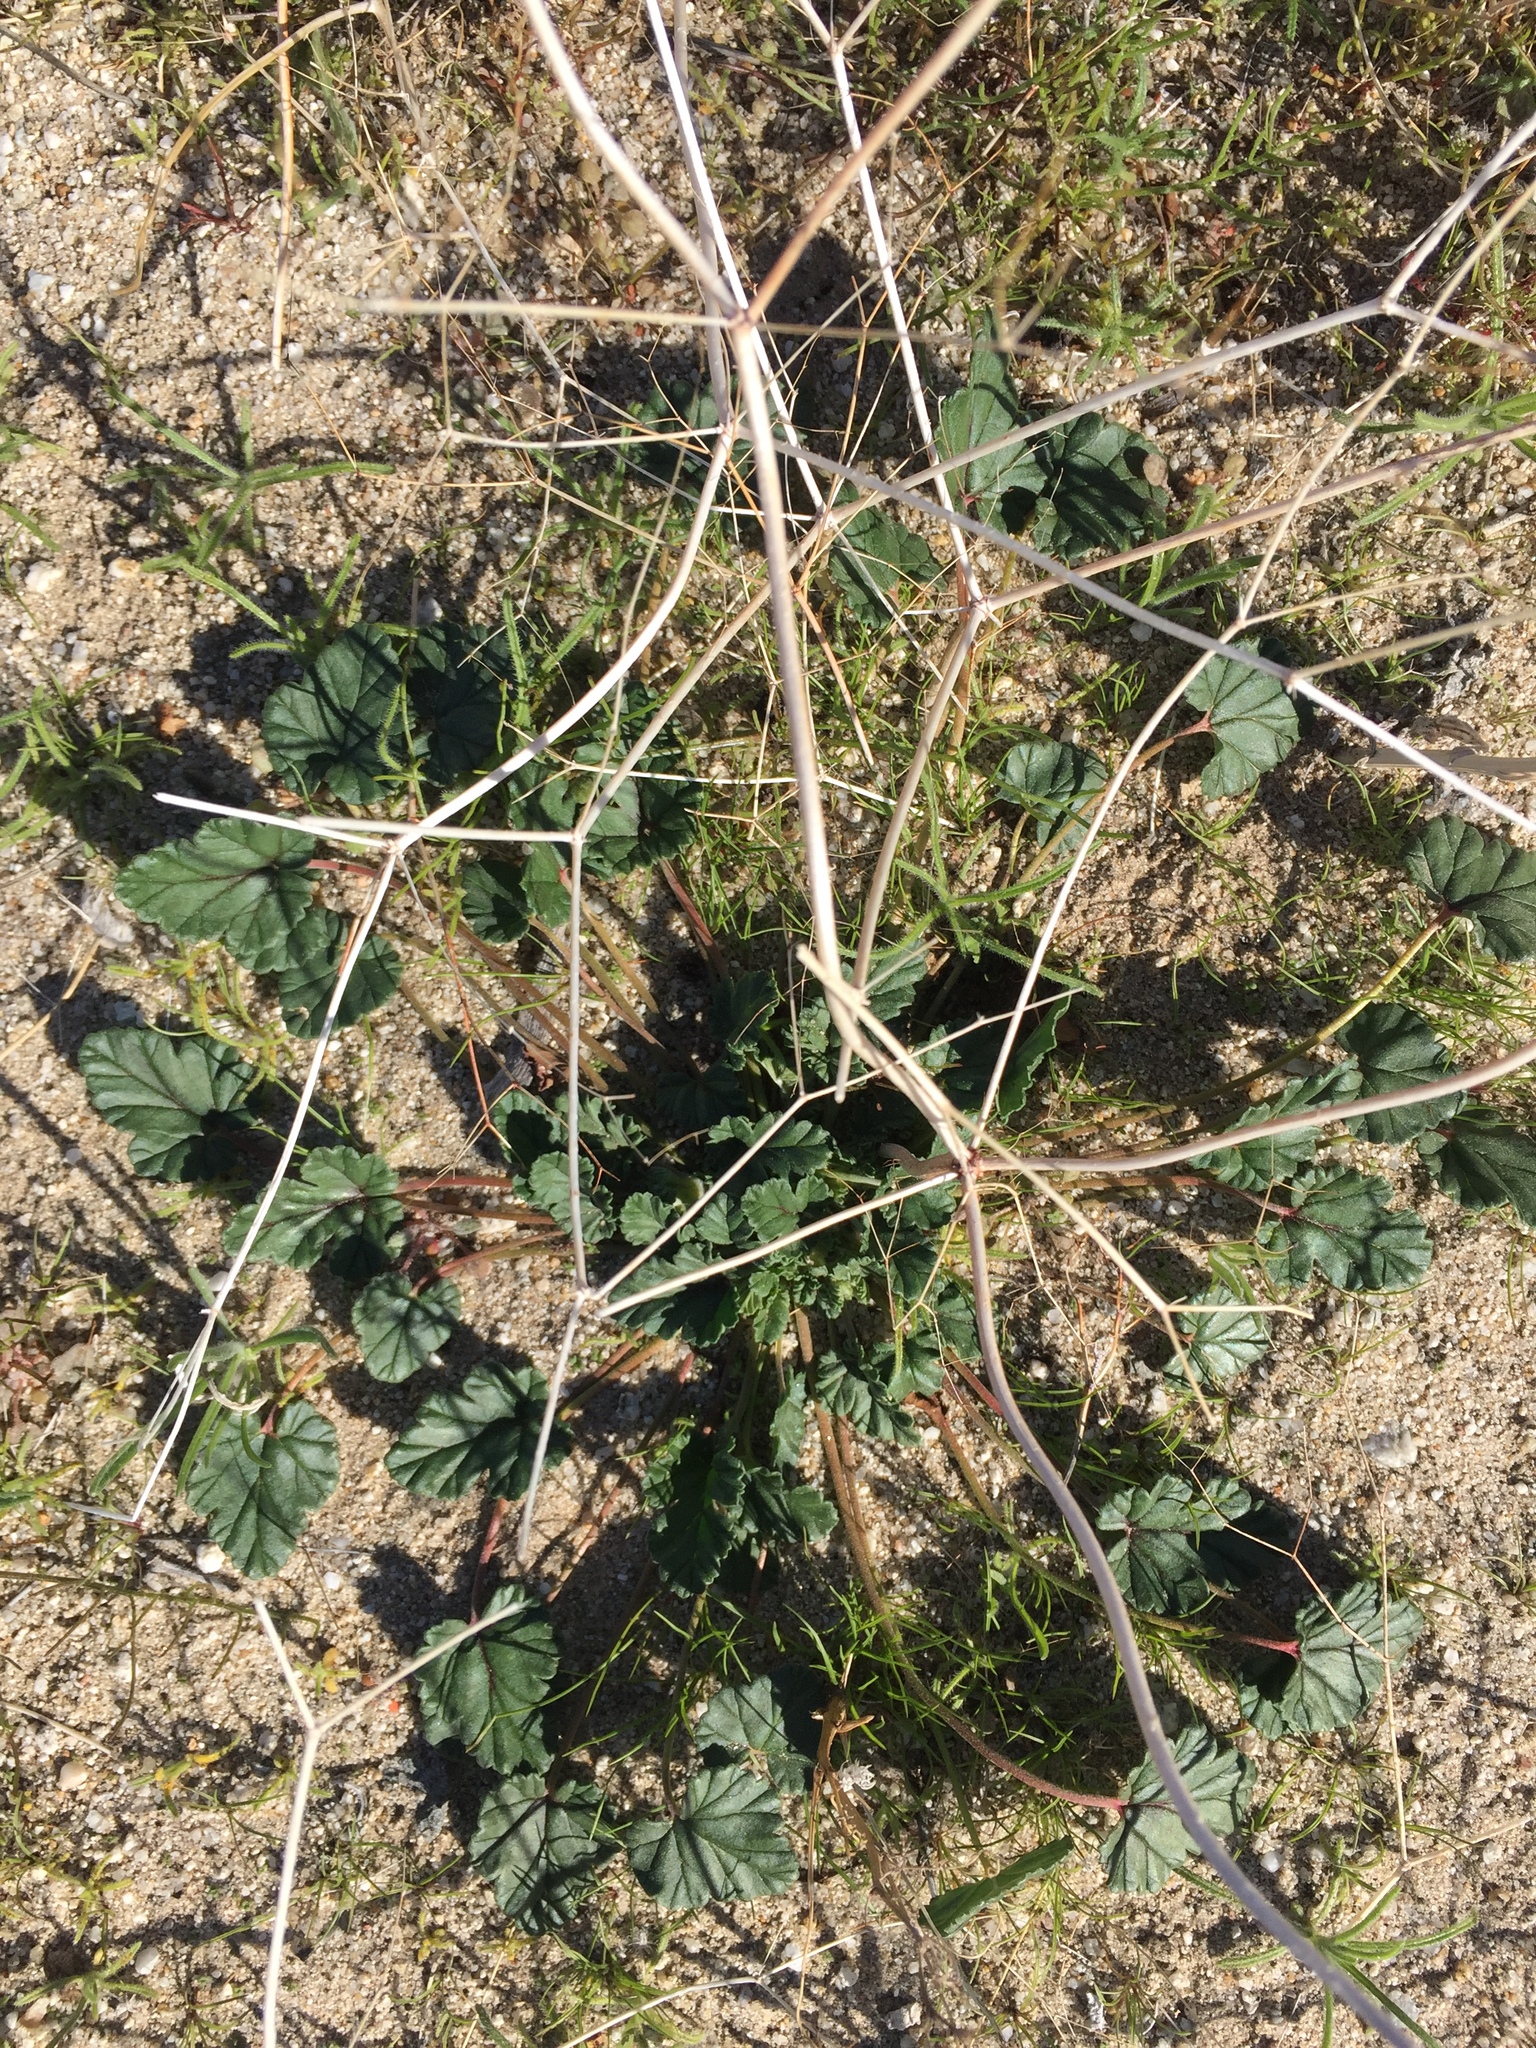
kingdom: Plantae
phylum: Tracheophyta
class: Magnoliopsida
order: Geraniales
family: Geraniaceae
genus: Erodium
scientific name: Erodium texanum
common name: Texas stork's-bill
